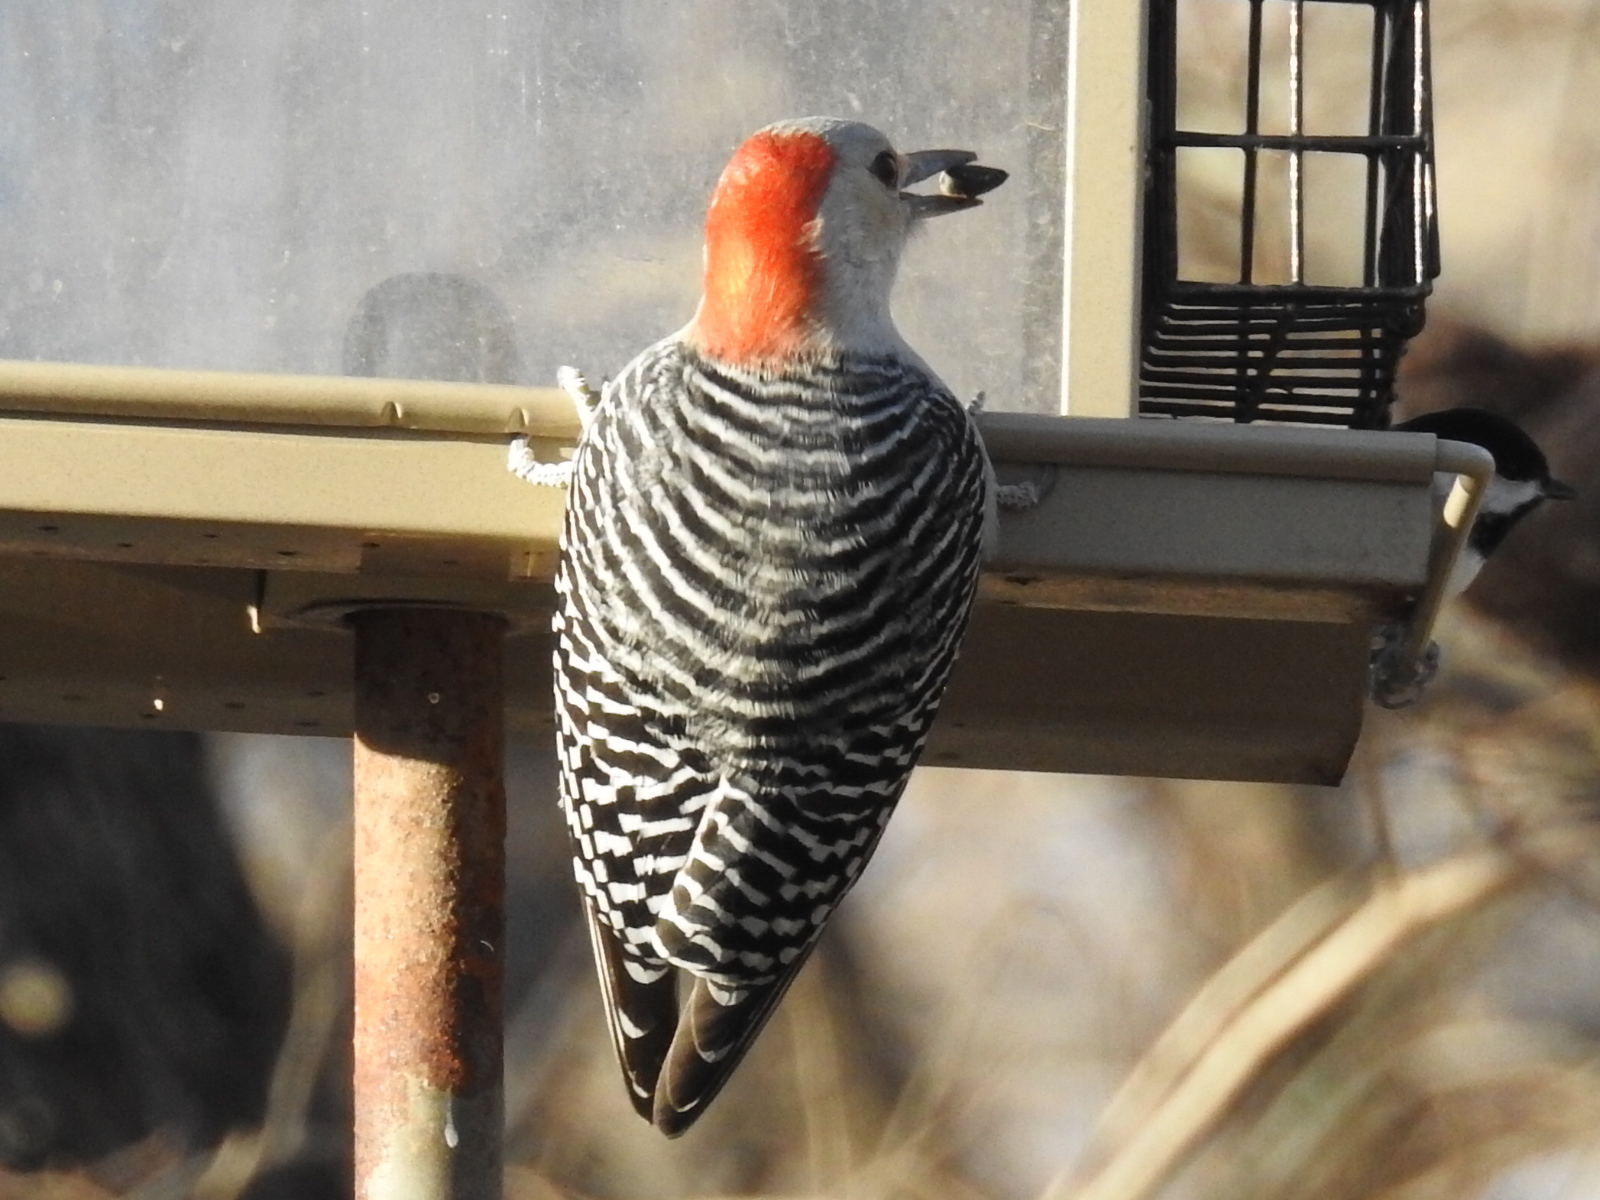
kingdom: Animalia
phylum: Chordata
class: Aves
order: Piciformes
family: Picidae
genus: Melanerpes
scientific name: Melanerpes carolinus
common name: Red-bellied woodpecker
